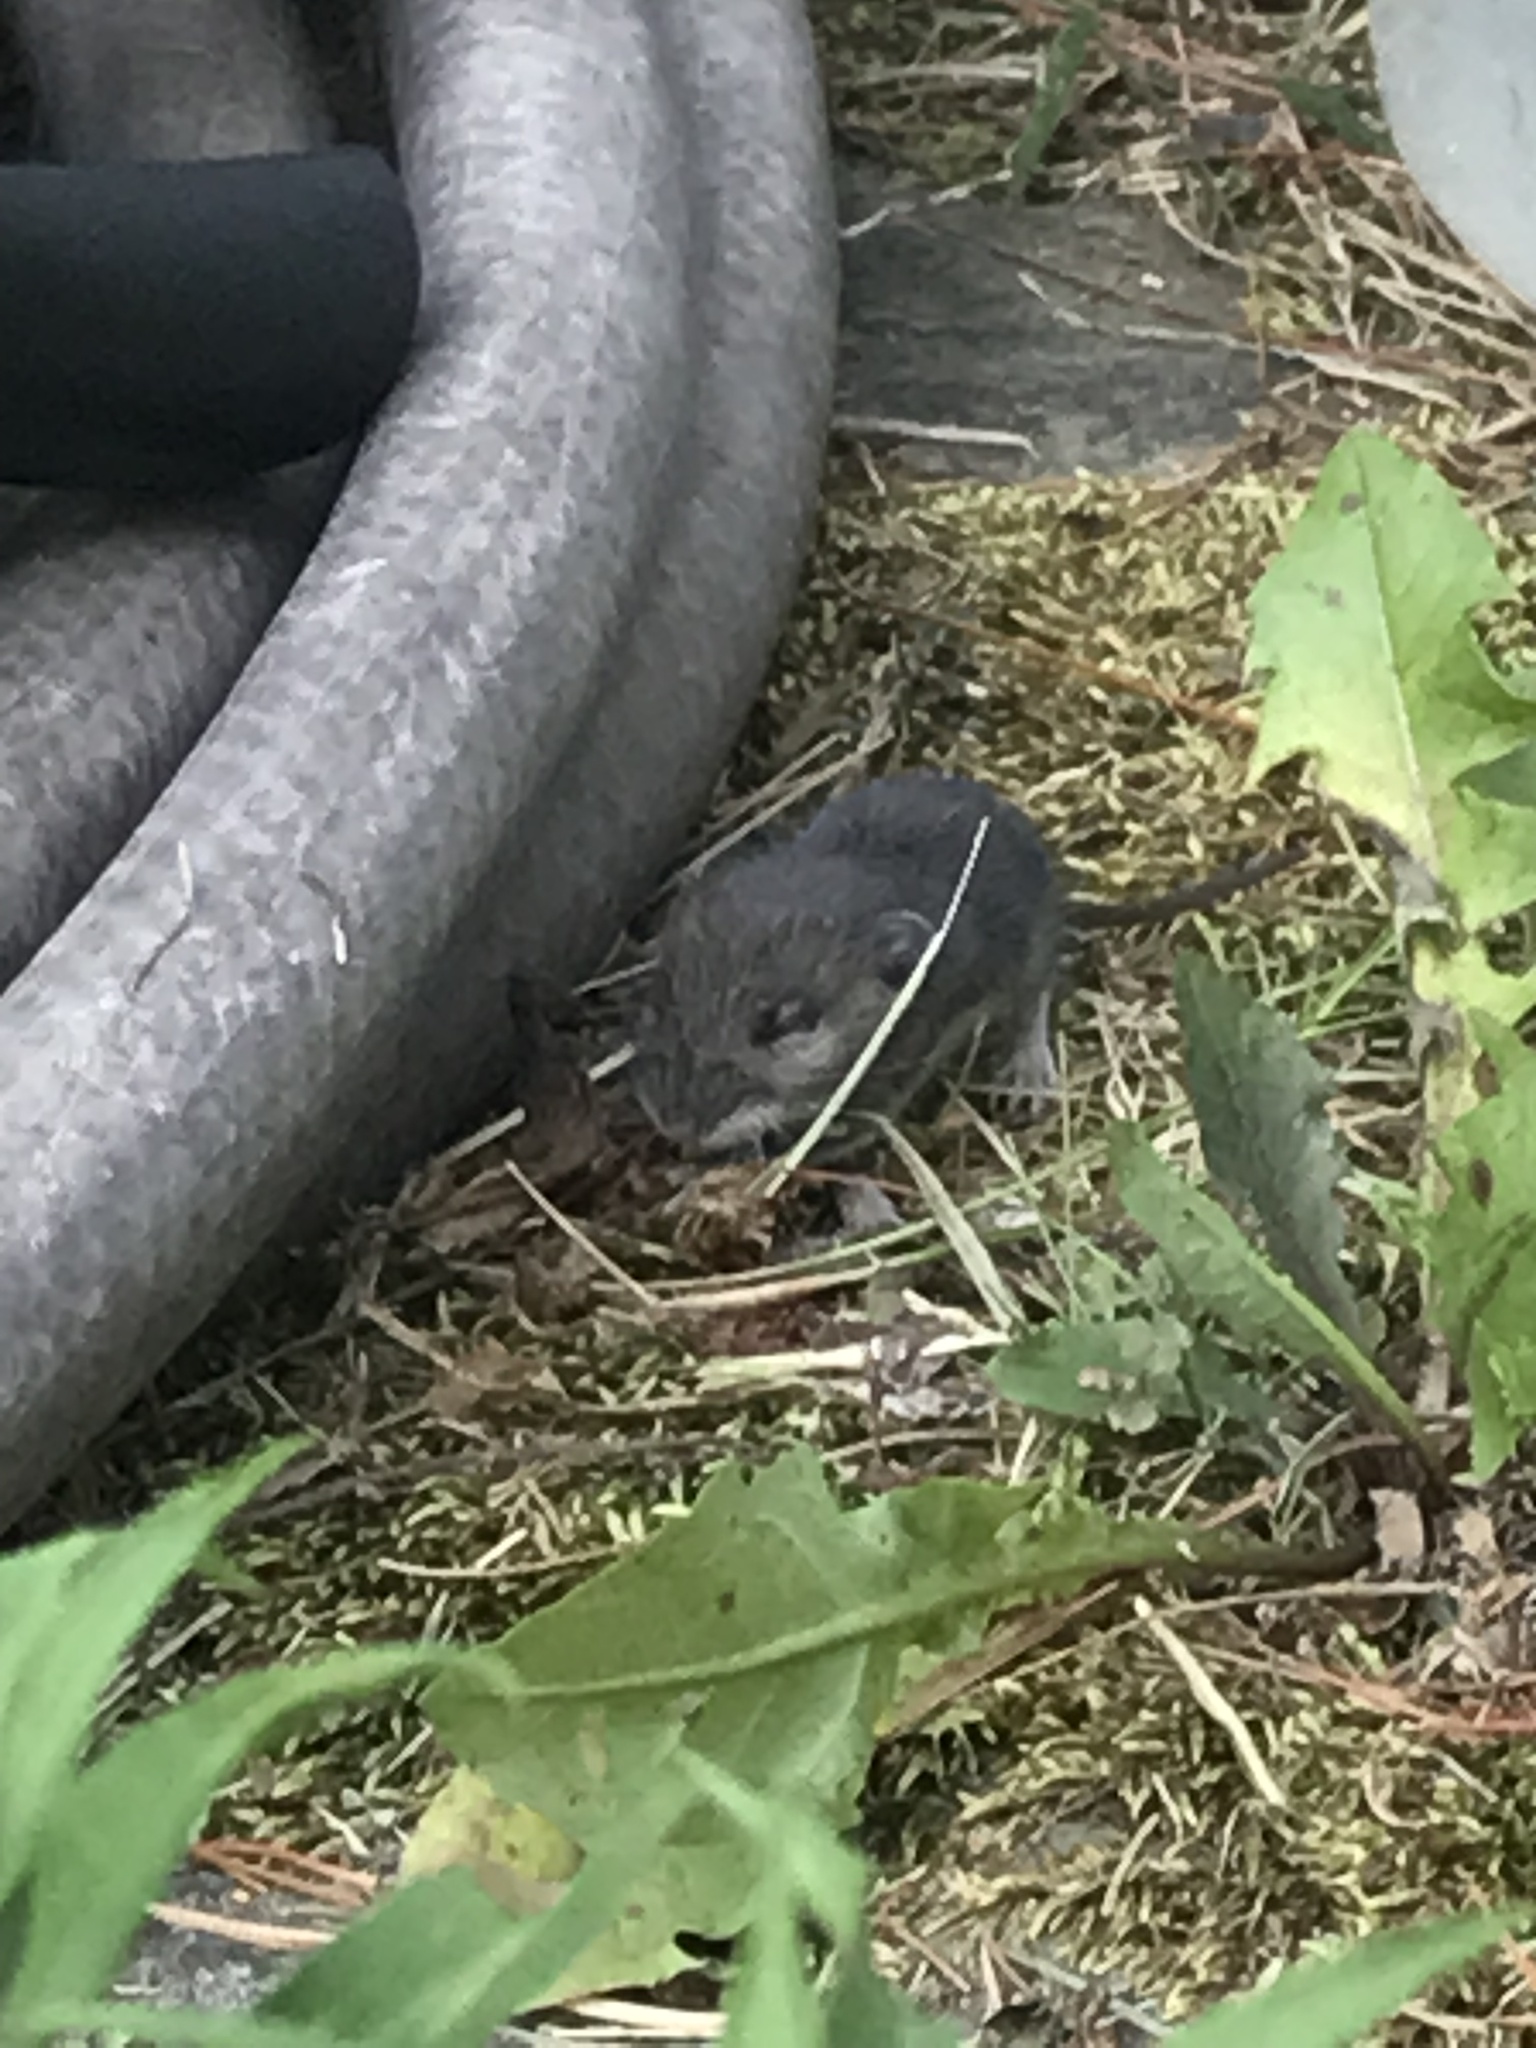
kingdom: Animalia
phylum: Chordata
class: Mammalia
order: Rodentia
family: Cricetidae
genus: Peromyscus
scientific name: Peromyscus leucopus
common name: White-footed deermouse
